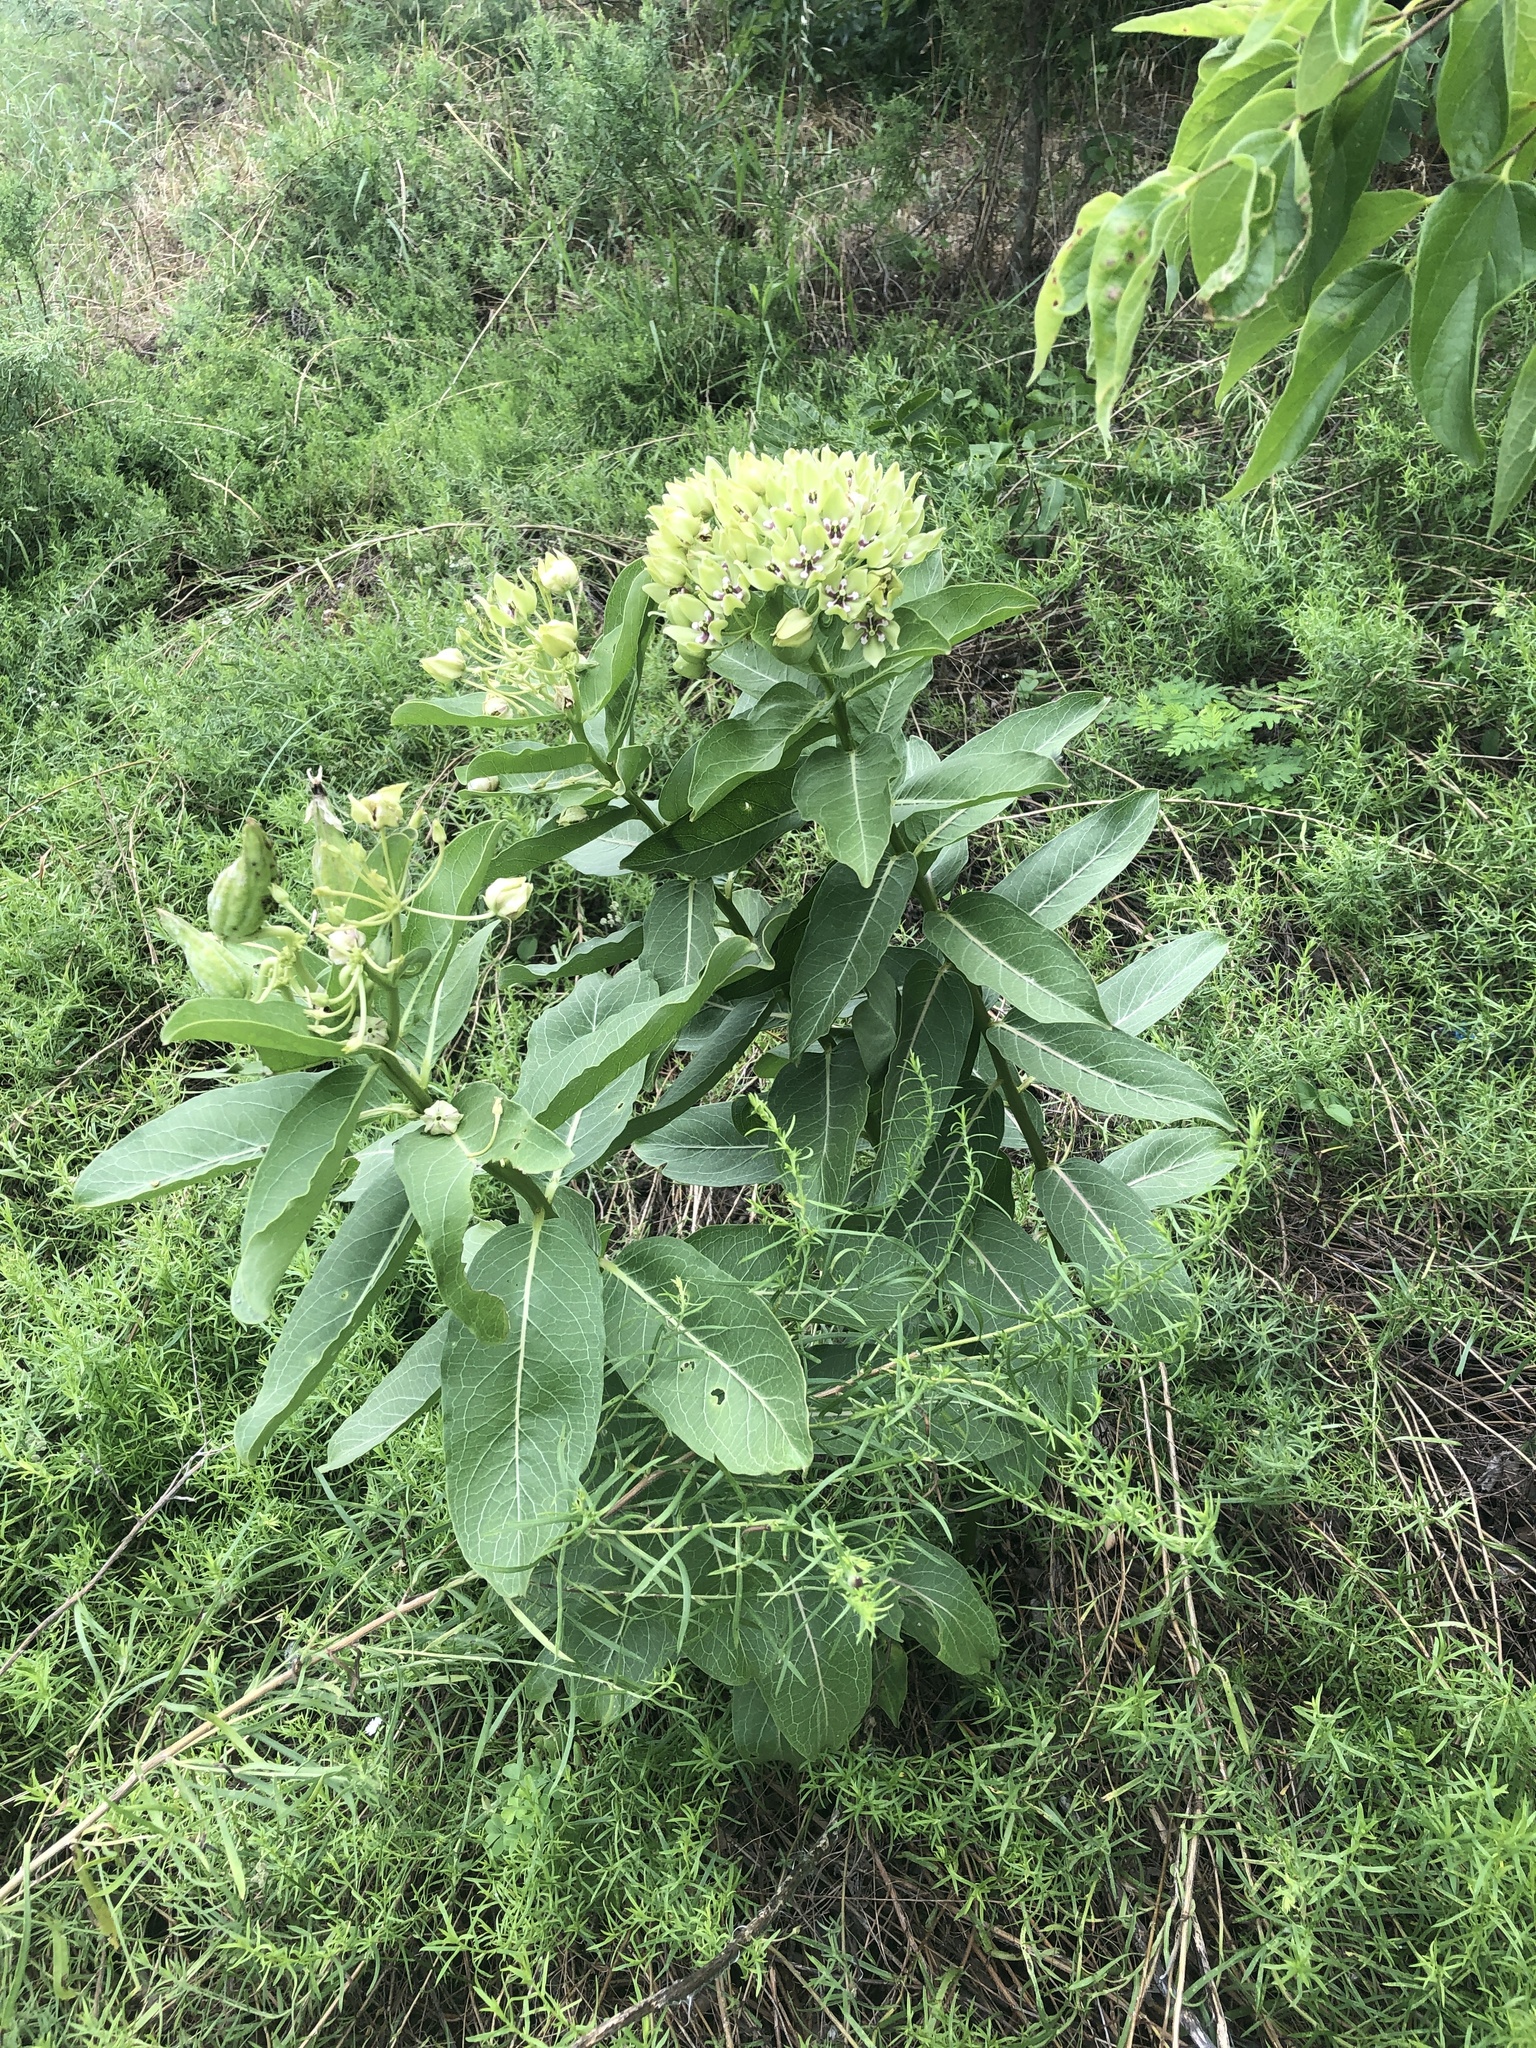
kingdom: Plantae
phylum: Tracheophyta
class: Magnoliopsida
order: Gentianales
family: Apocynaceae
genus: Asclepias
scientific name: Asclepias viridis
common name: Antelope-horns
